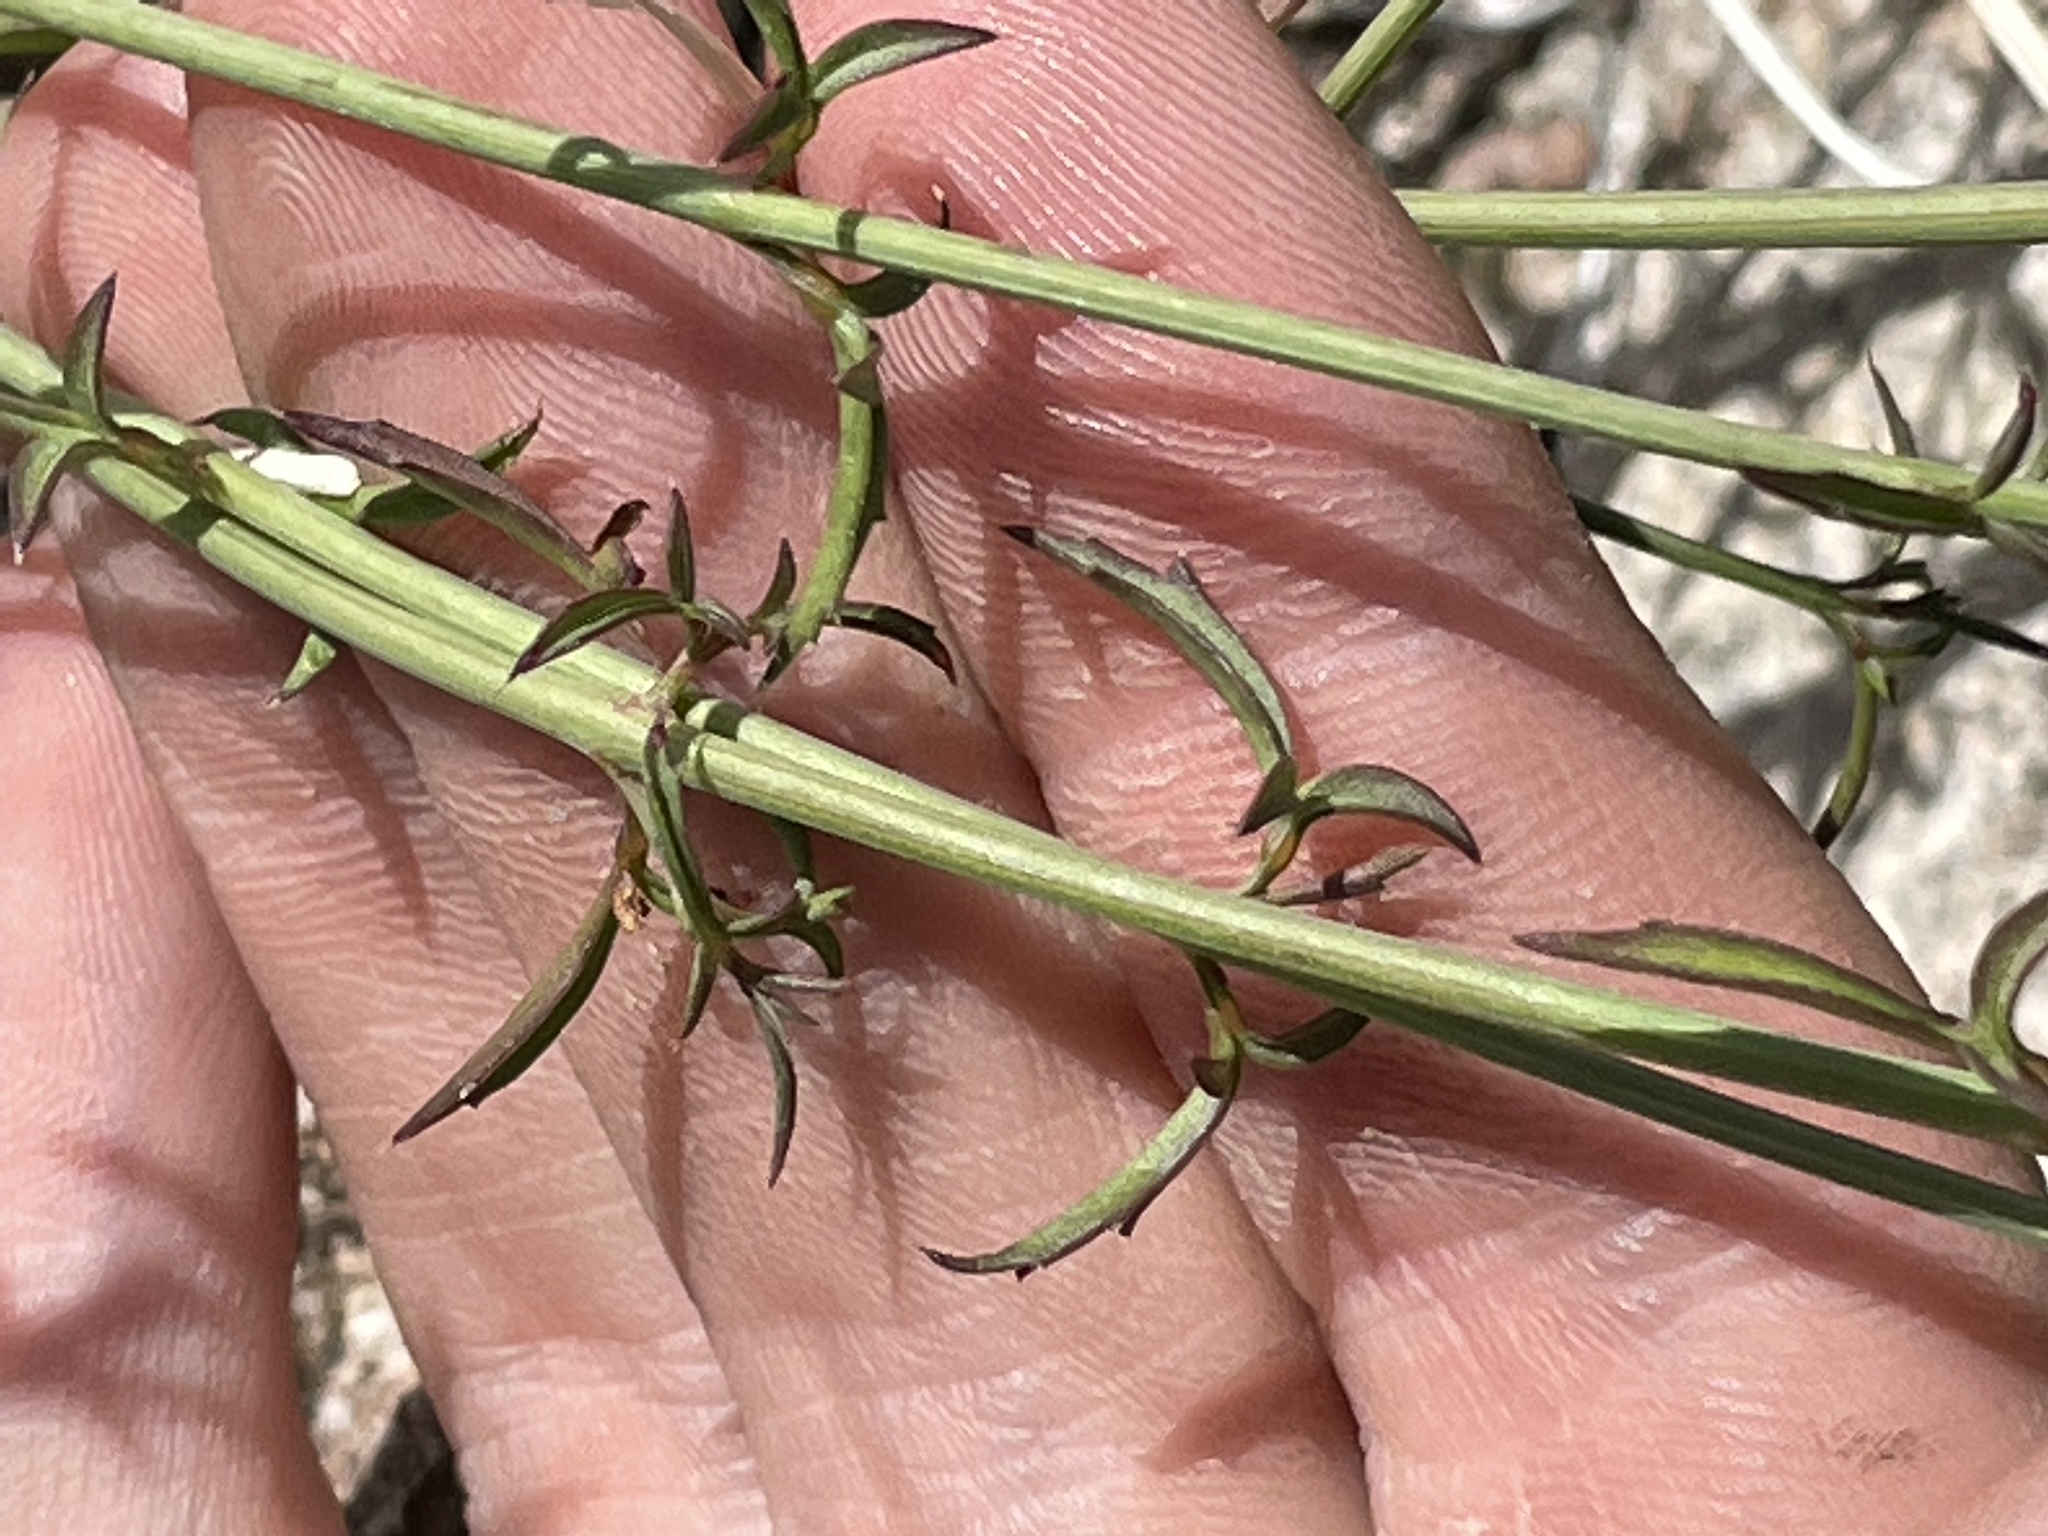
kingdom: Plantae
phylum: Tracheophyta
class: Magnoliopsida
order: Asterales
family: Asteraceae
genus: Adenophyllum
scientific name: Adenophyllum porophylloides
